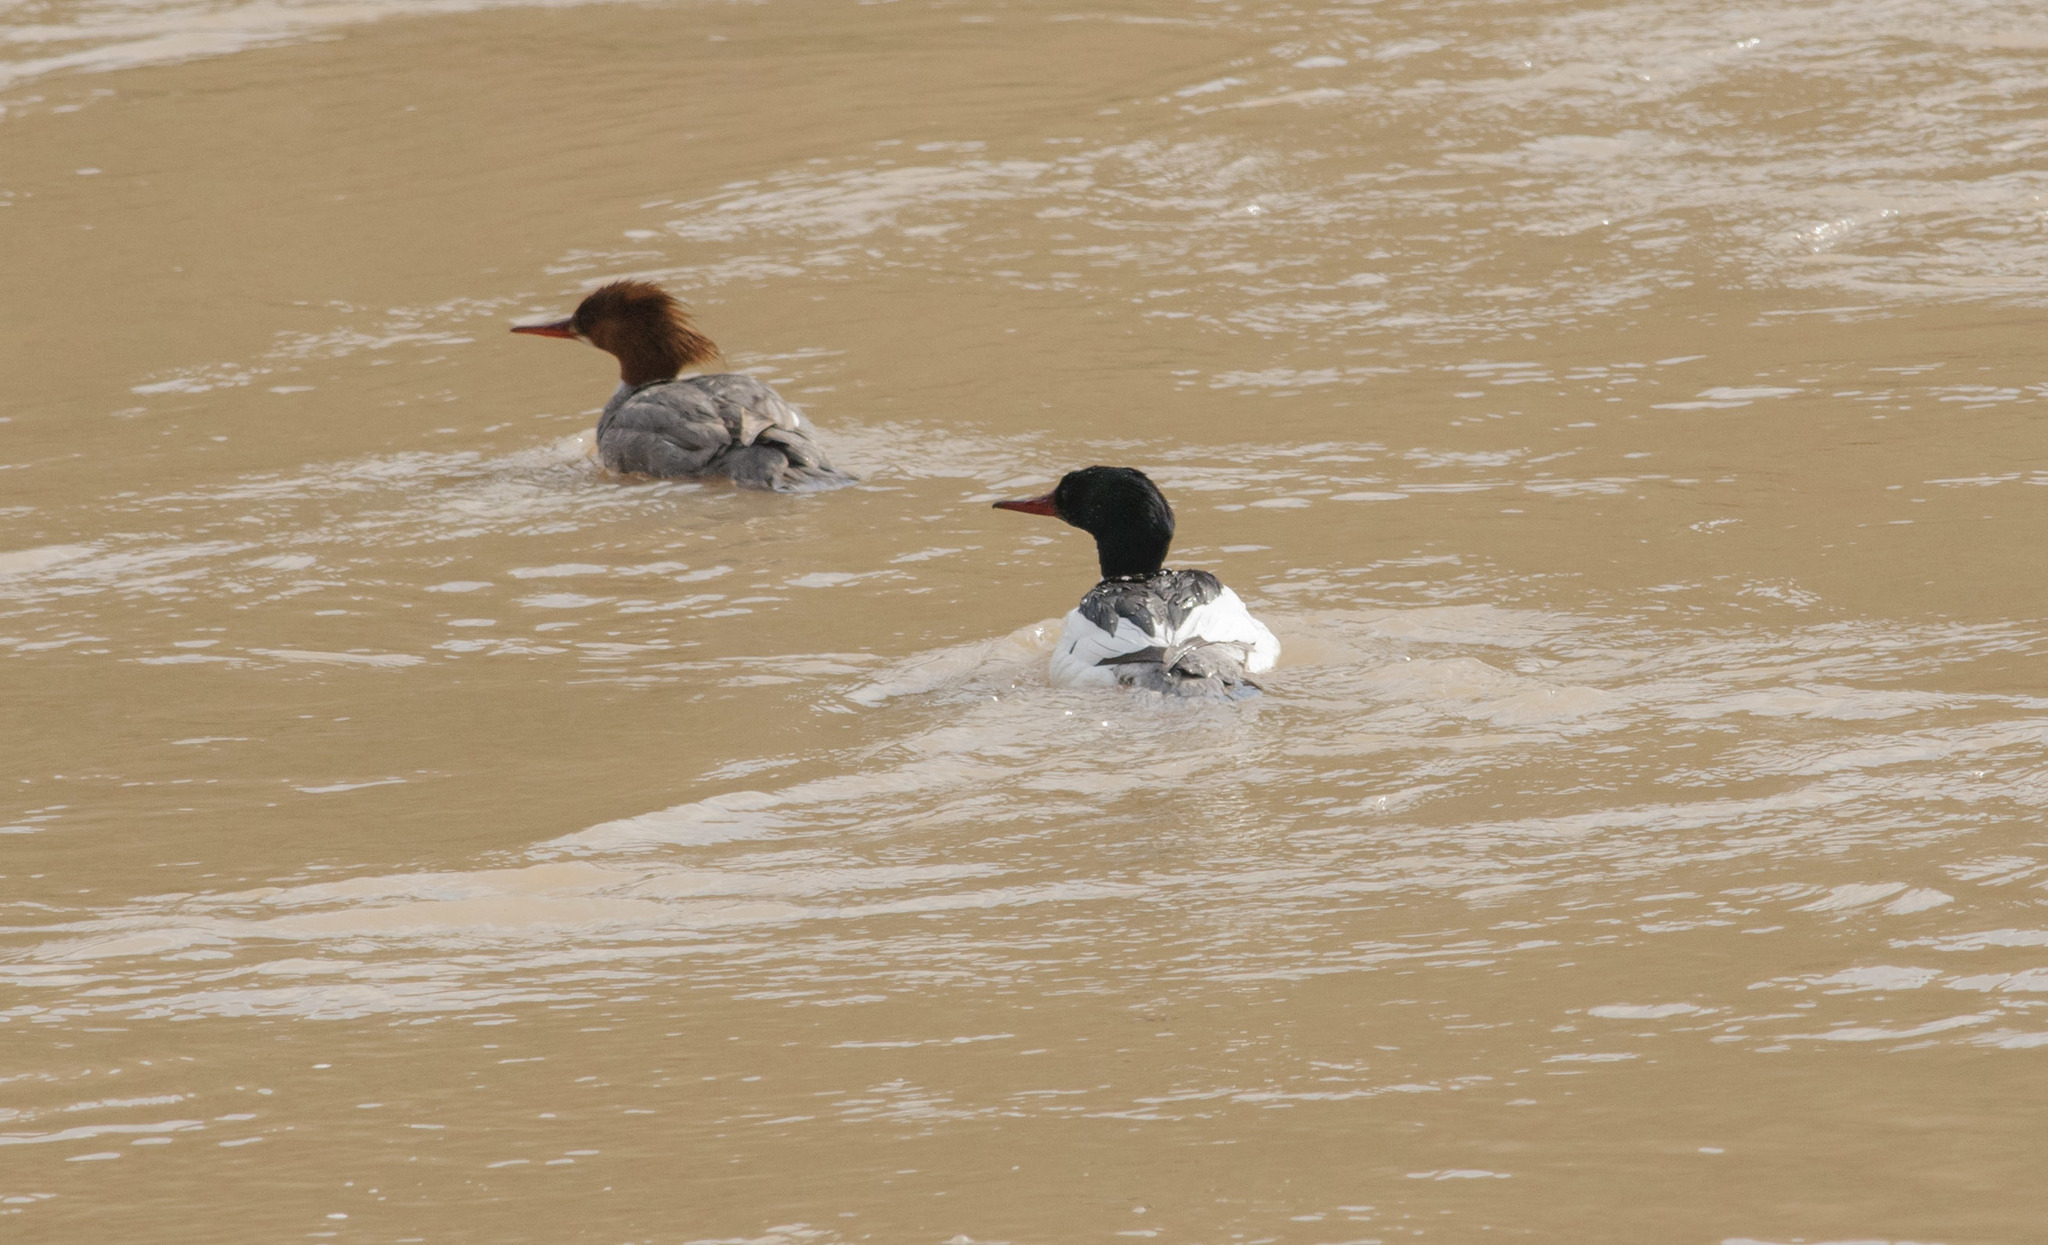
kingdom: Animalia
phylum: Chordata
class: Aves
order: Anseriformes
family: Anatidae
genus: Mergus
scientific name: Mergus merganser
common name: Common merganser
